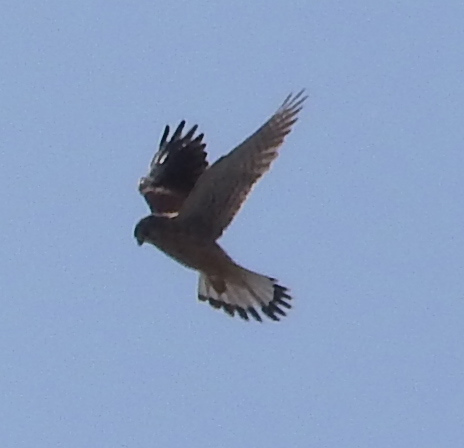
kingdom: Animalia
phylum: Chordata
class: Aves
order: Falconiformes
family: Falconidae
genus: Falco
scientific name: Falco tinnunculus
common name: Common kestrel
